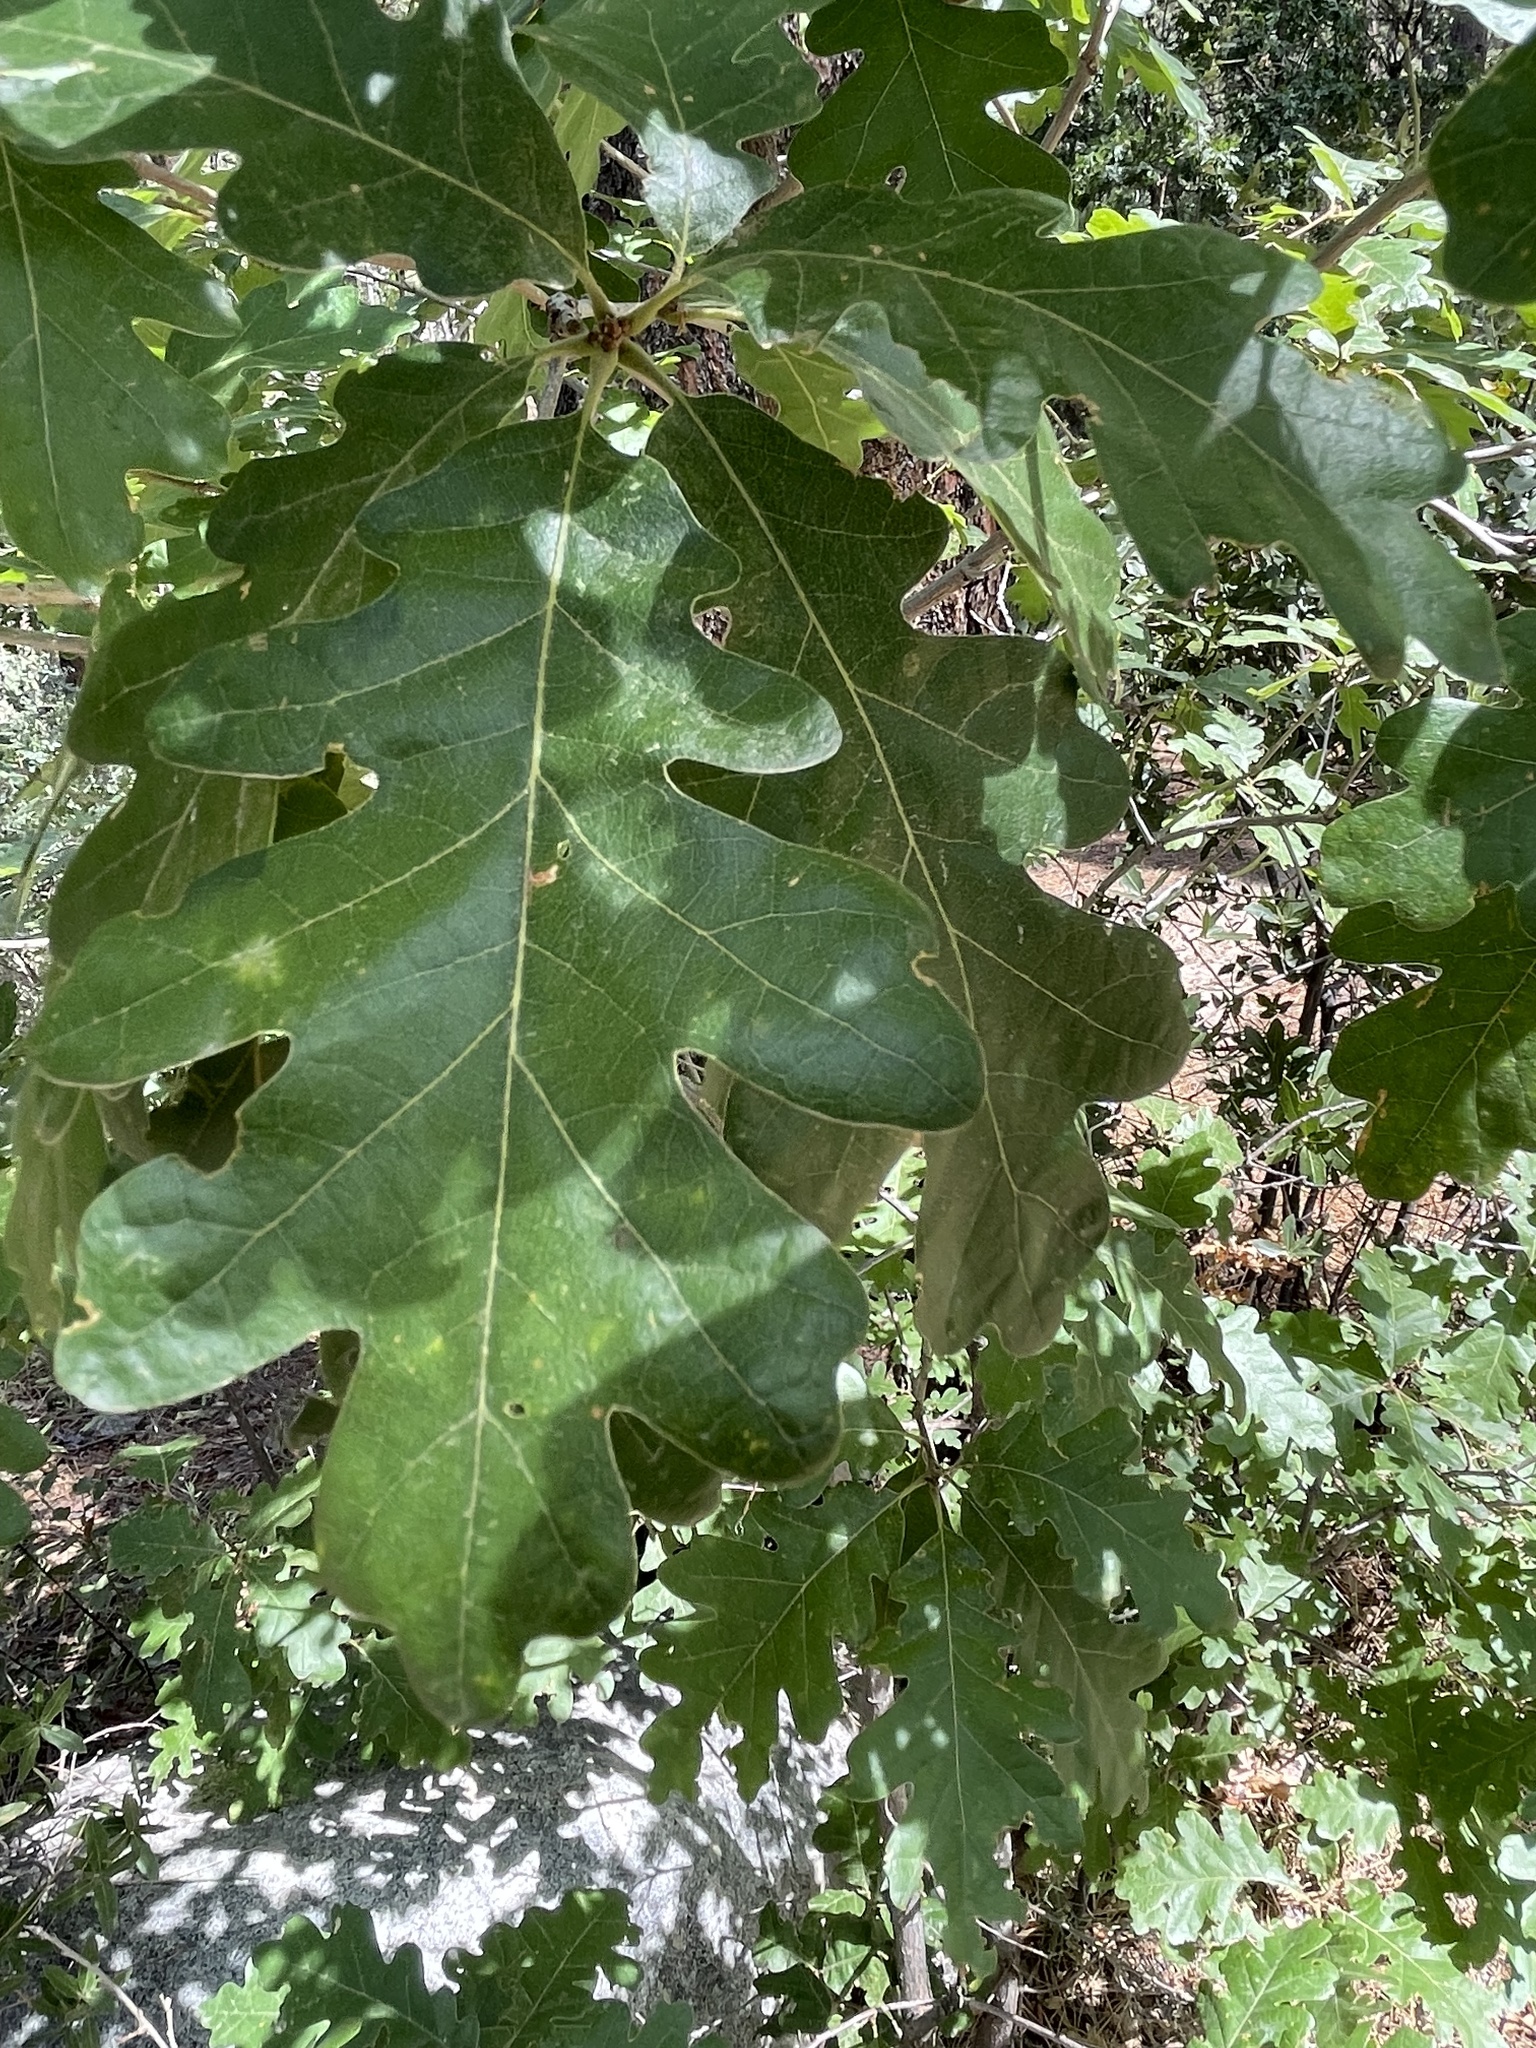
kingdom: Plantae
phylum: Tracheophyta
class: Magnoliopsida
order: Fagales
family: Fagaceae
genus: Quercus
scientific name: Quercus gambelii
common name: Gambel oak
